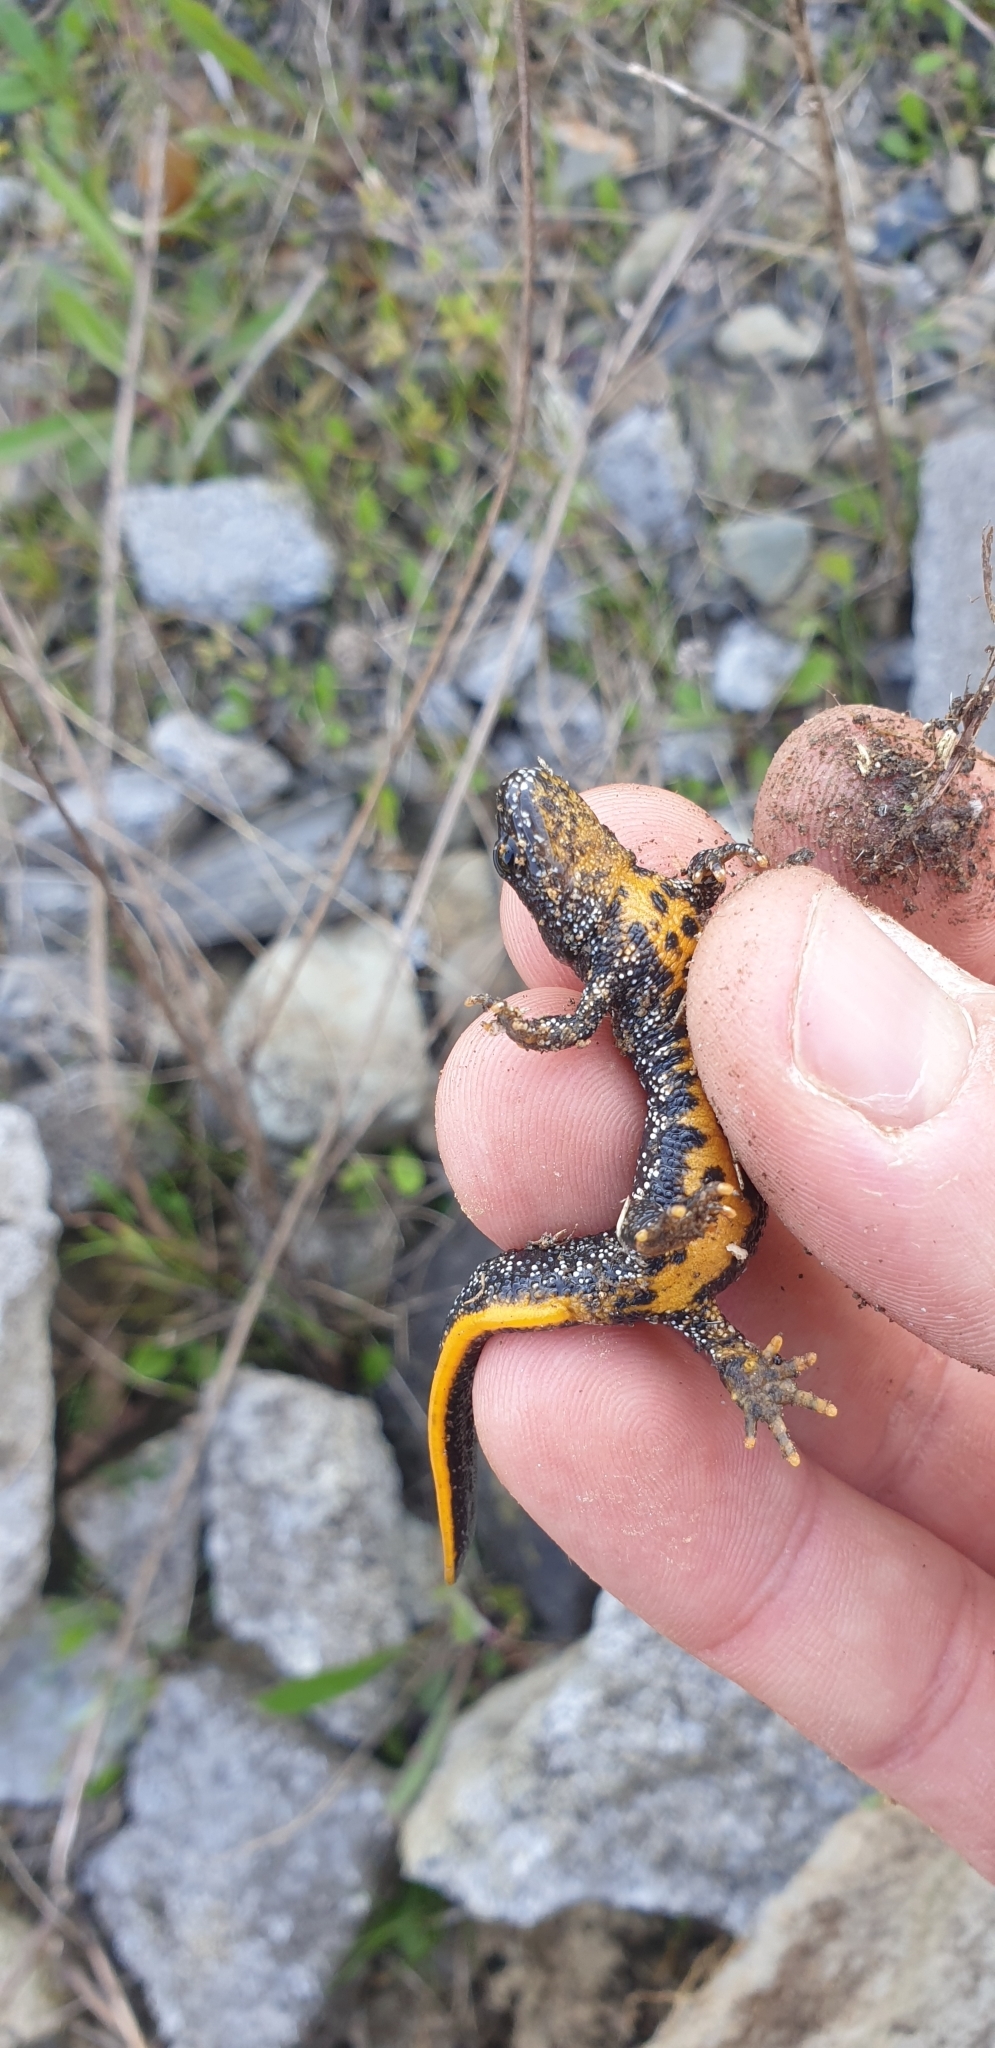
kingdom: Animalia
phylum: Chordata
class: Amphibia
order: Caudata
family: Salamandridae
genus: Triturus
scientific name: Triturus cristatus
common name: Crested newt
